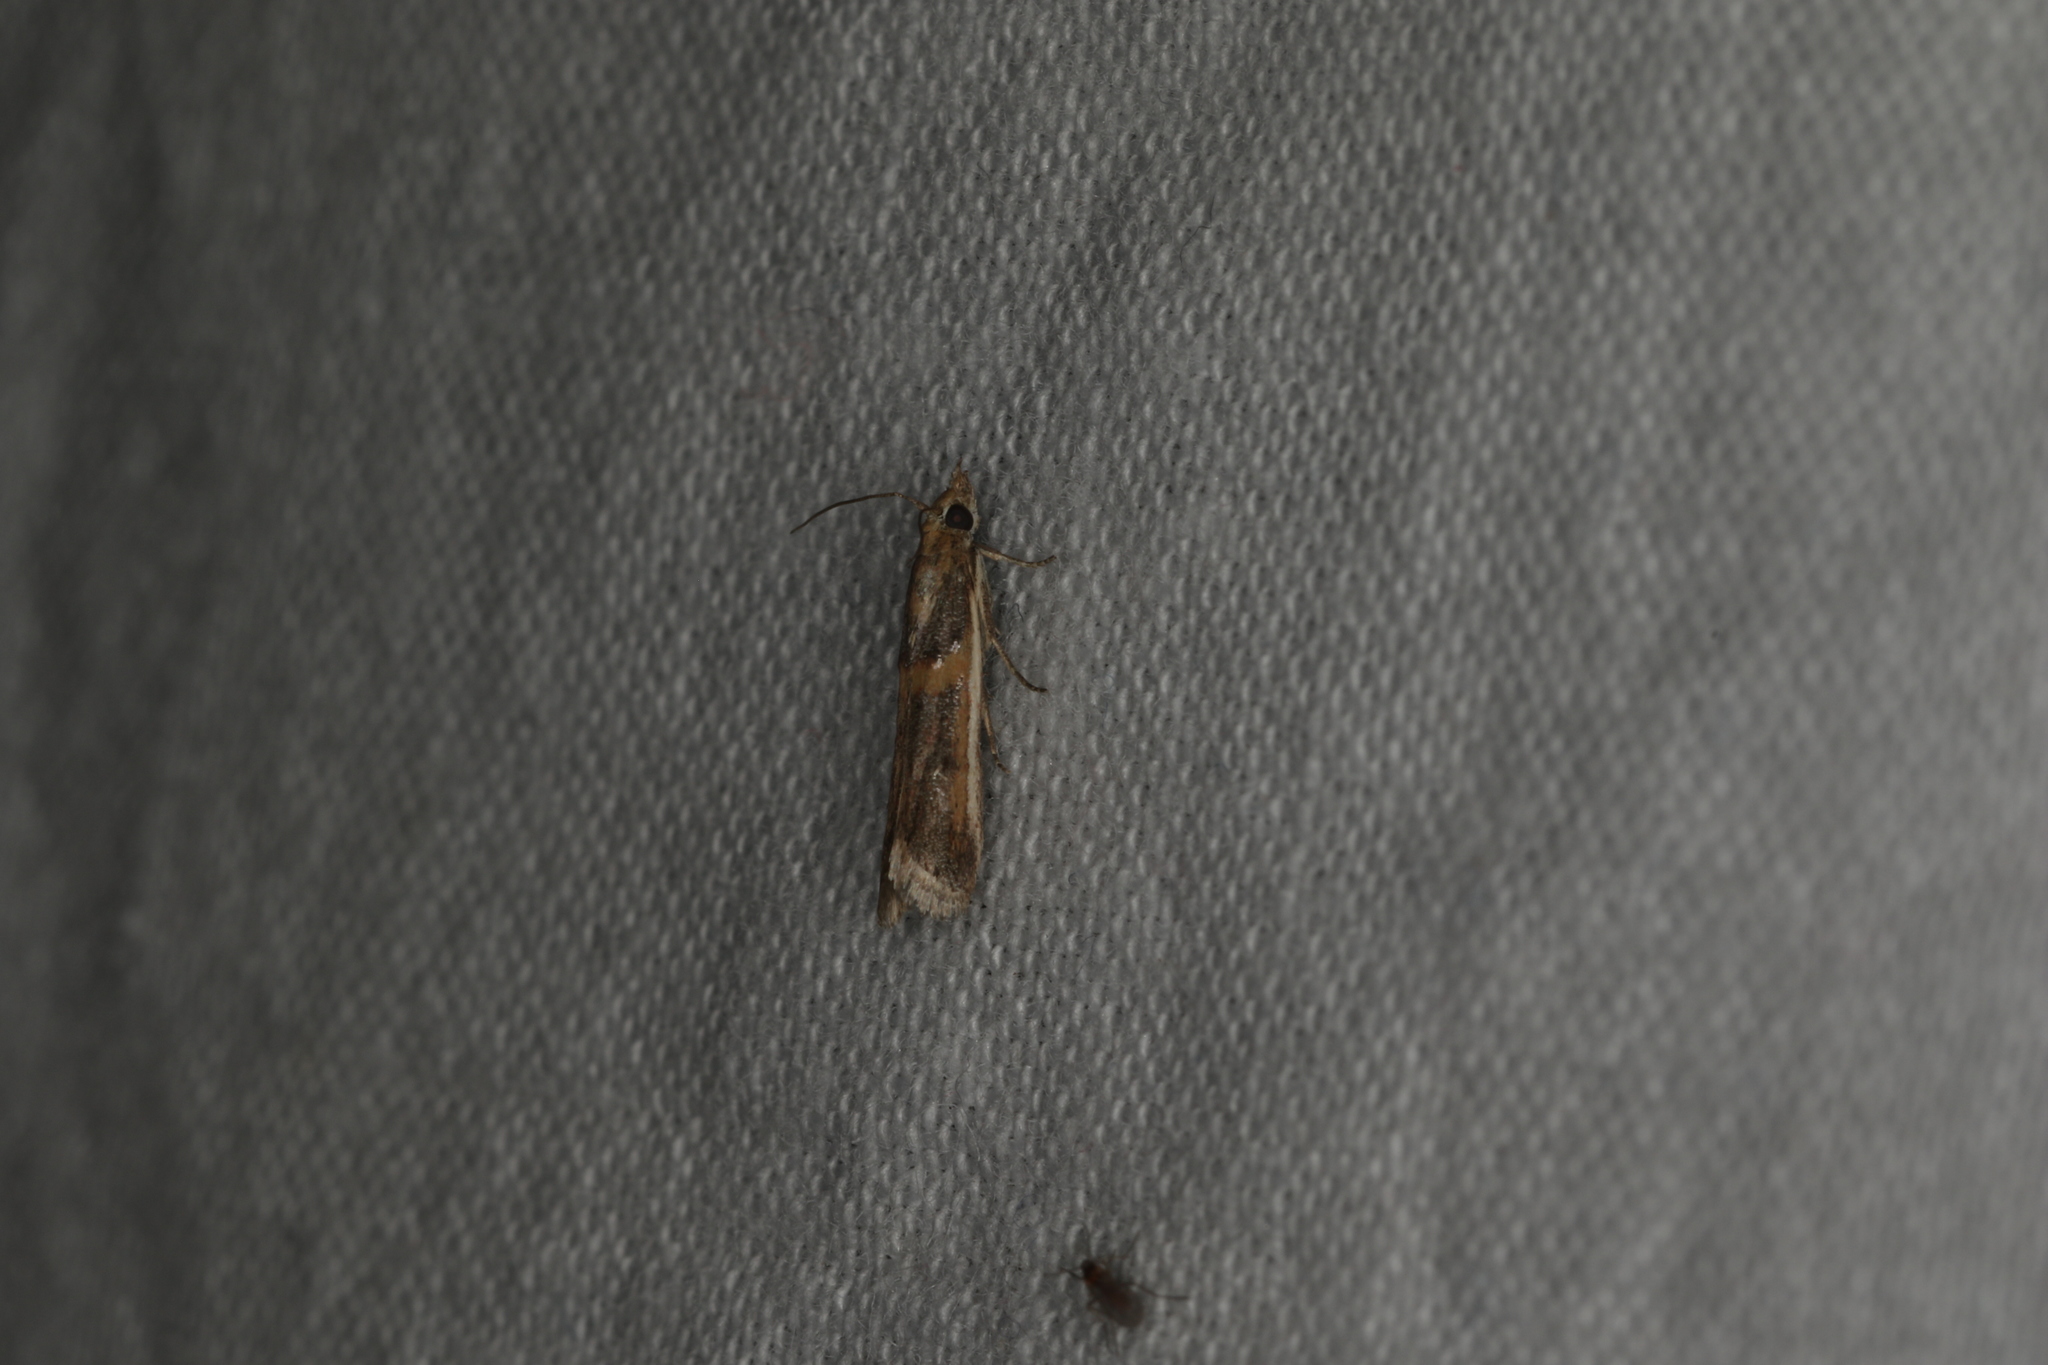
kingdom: Animalia
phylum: Arthropoda
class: Insecta
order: Lepidoptera
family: Pyralidae
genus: Etiella
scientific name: Etiella behrii
